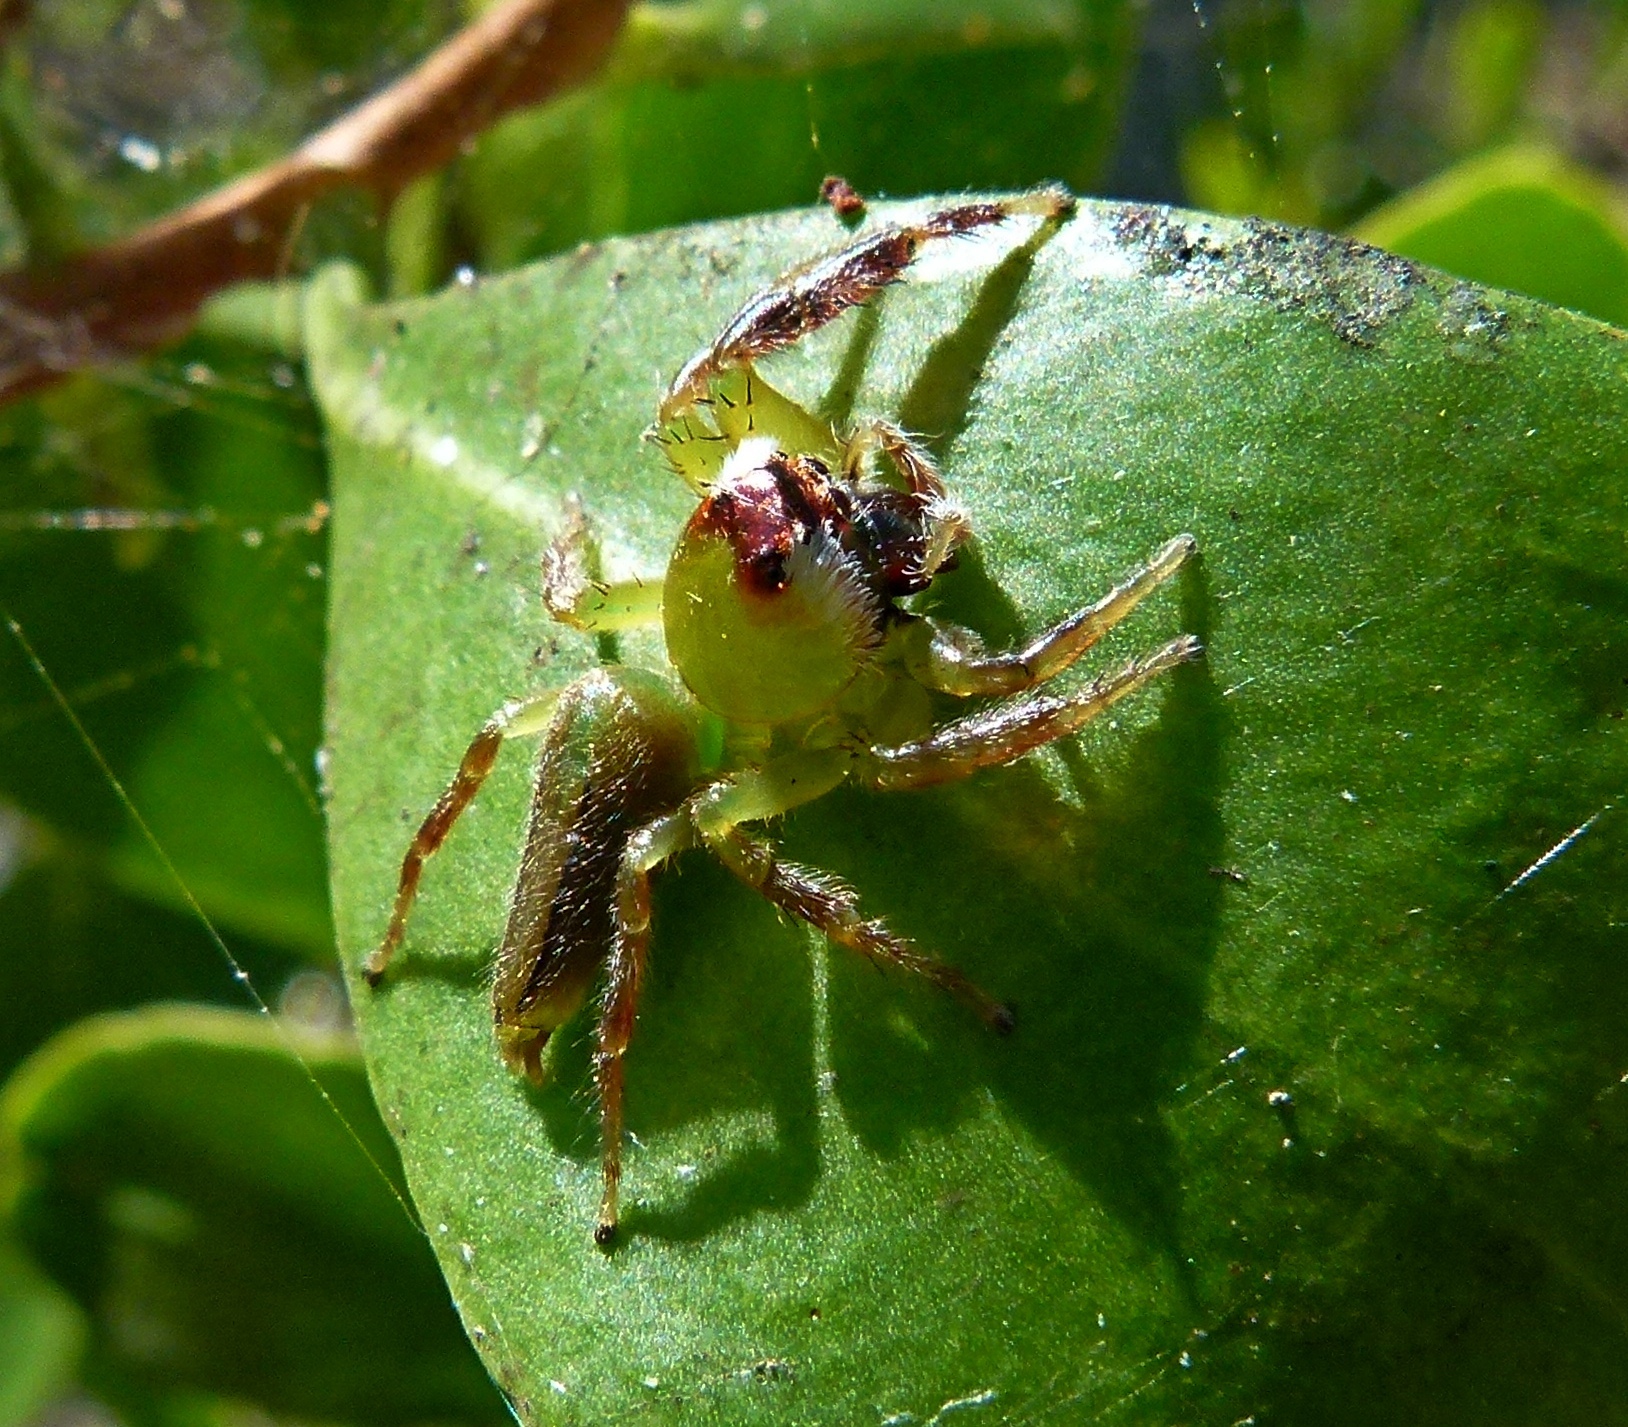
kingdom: Animalia
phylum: Arthropoda
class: Arachnida
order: Araneae
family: Salticidae
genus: Mopsus
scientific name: Mopsus mormon
